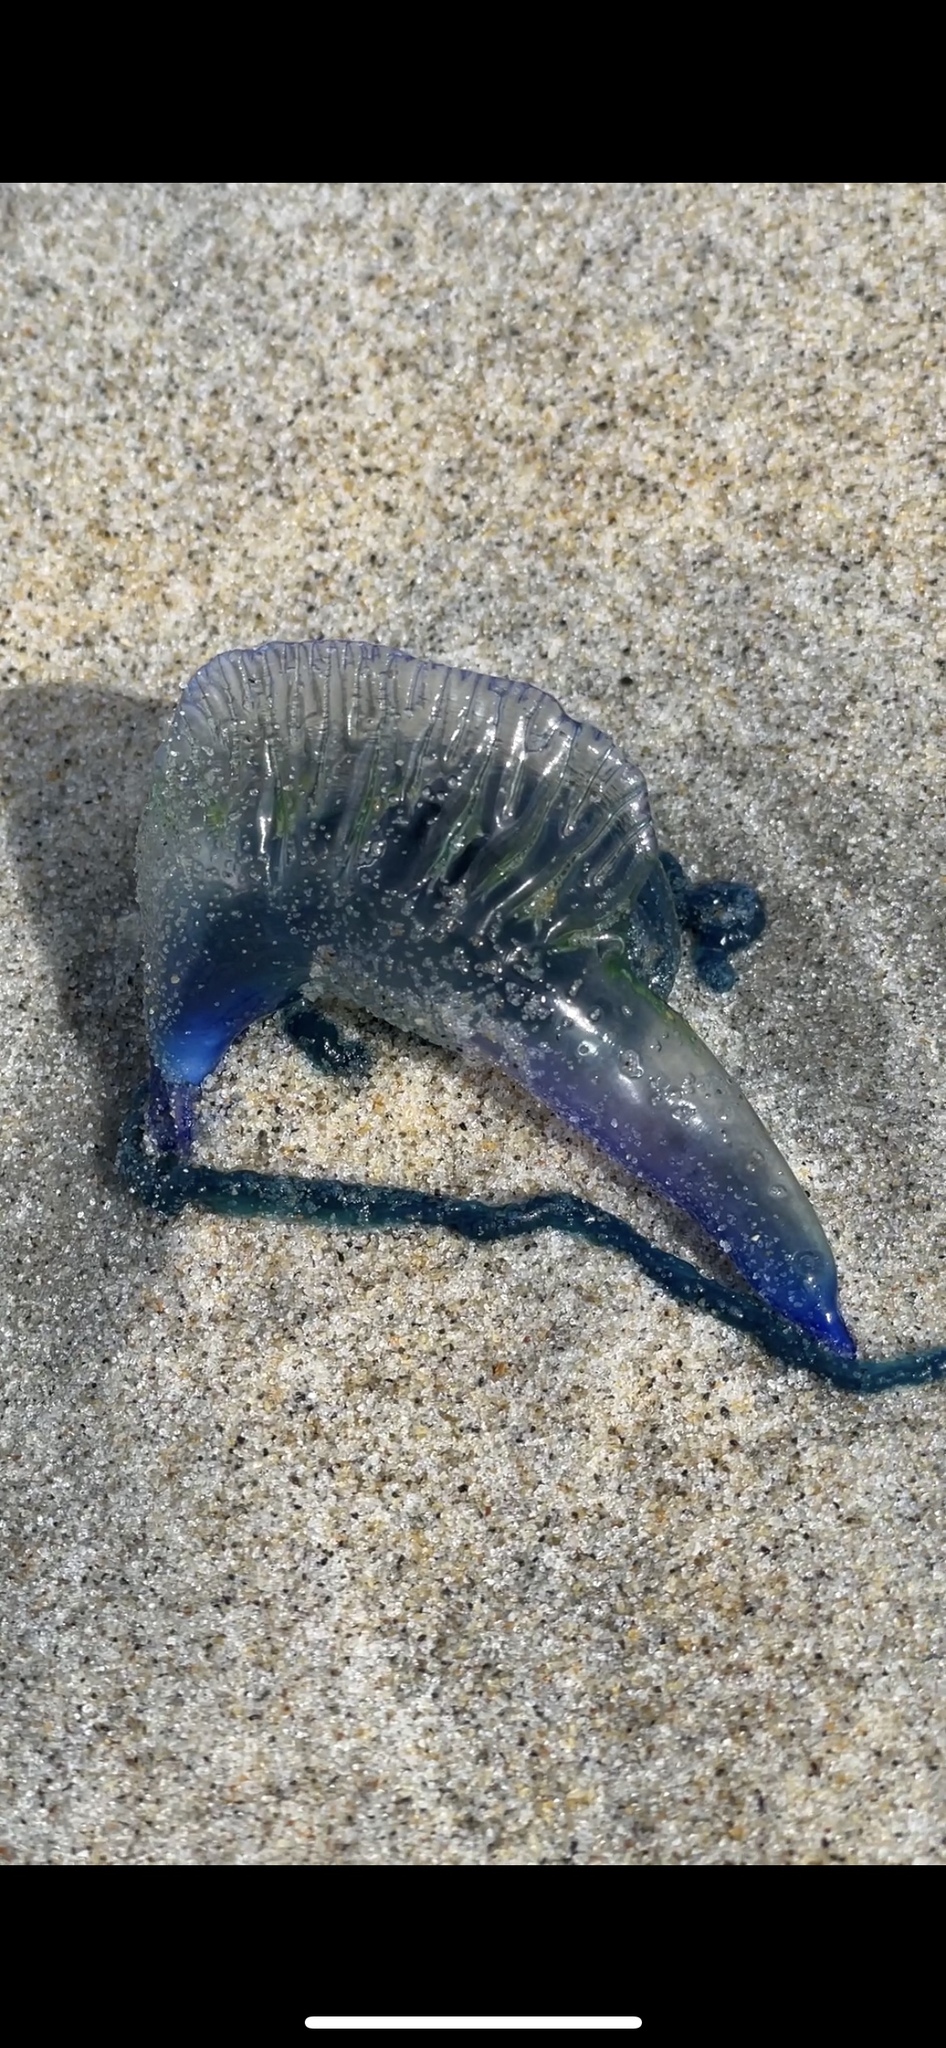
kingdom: Animalia
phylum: Cnidaria
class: Hydrozoa
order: Siphonophorae
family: Physaliidae
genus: Physalia
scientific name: Physalia physalis
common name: Portuguese man-of-war
